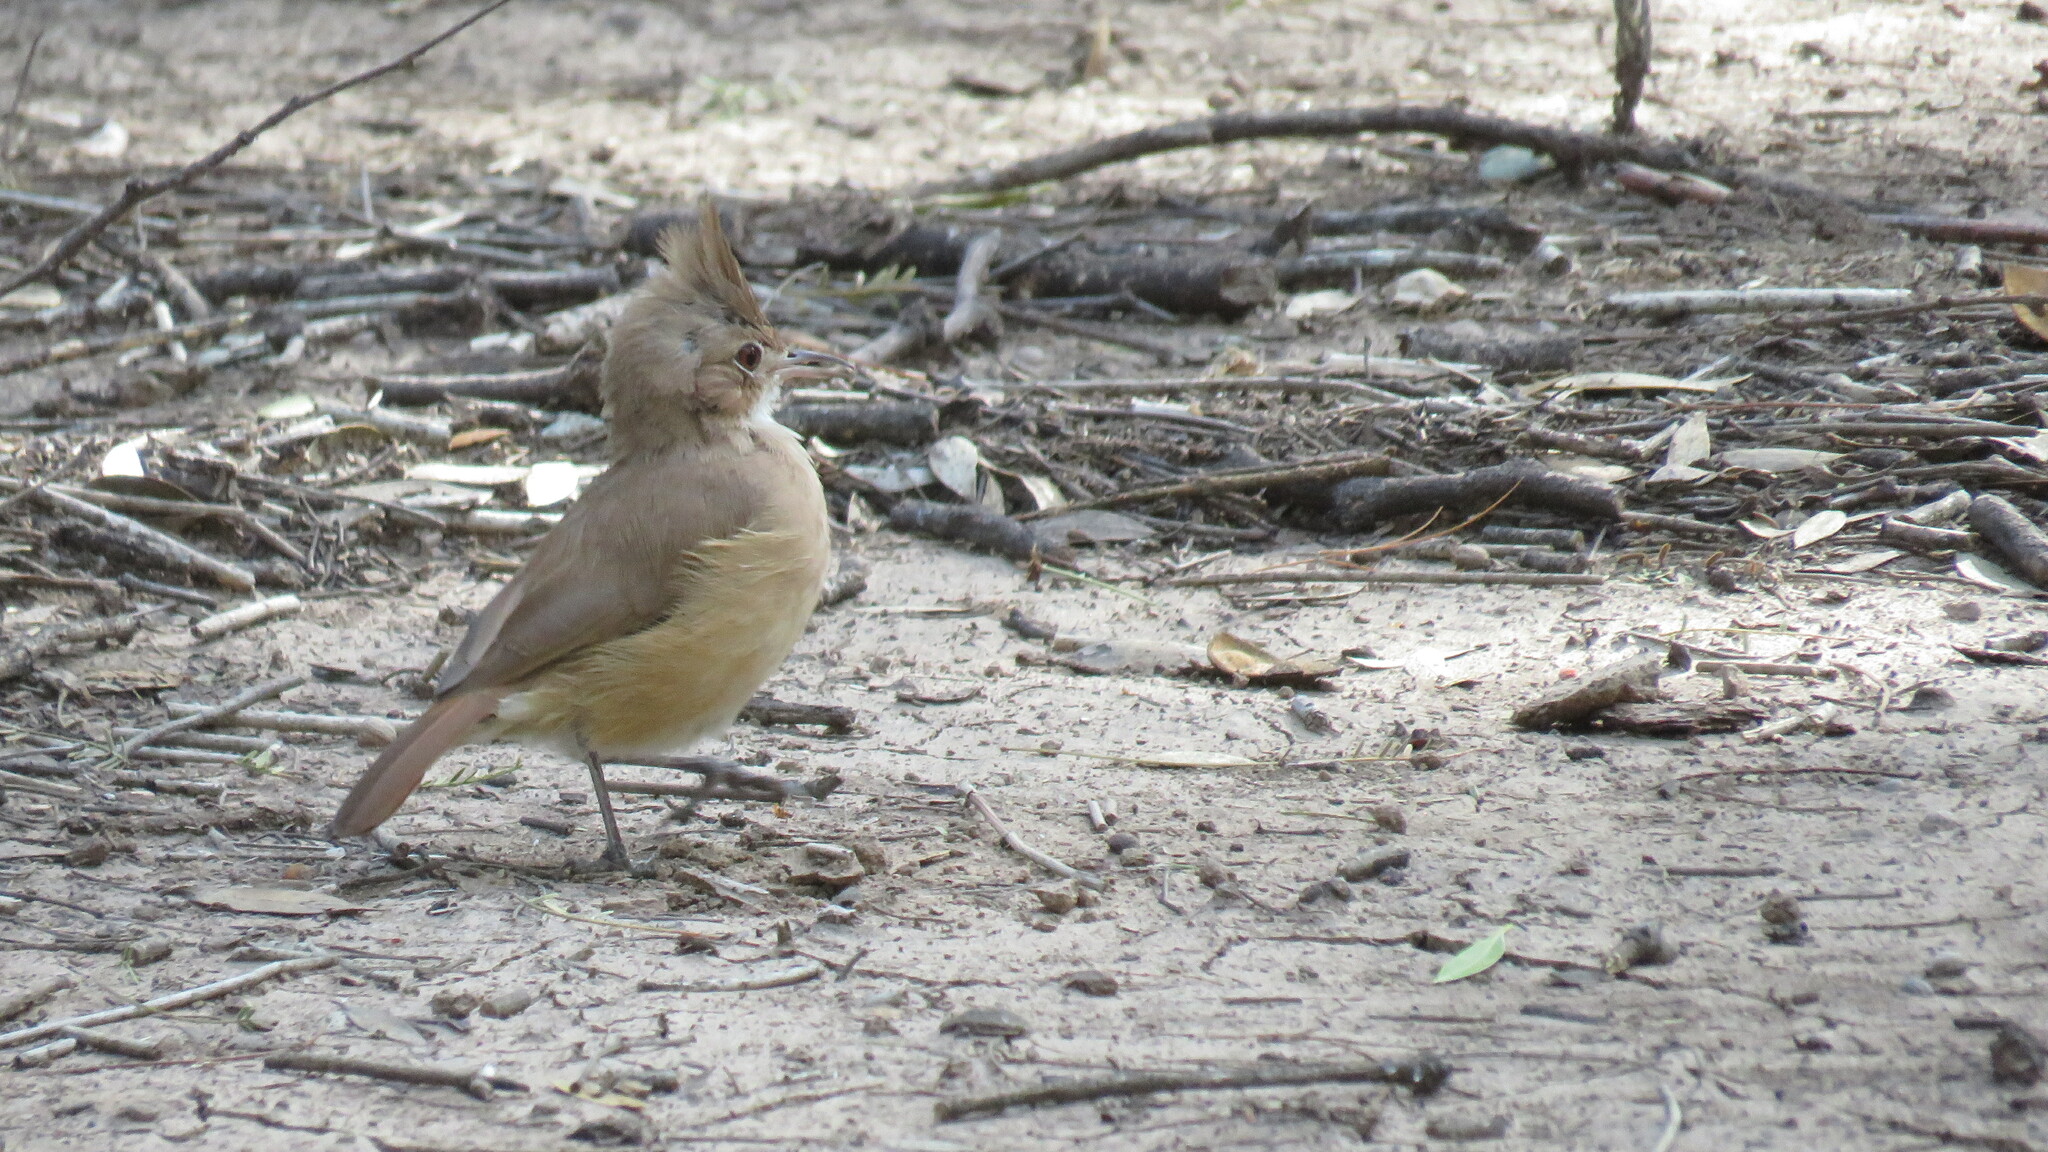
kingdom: Animalia
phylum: Chordata
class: Aves
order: Passeriformes
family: Furnariidae
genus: Furnarius
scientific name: Furnarius cristatus
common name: Crested hornero
